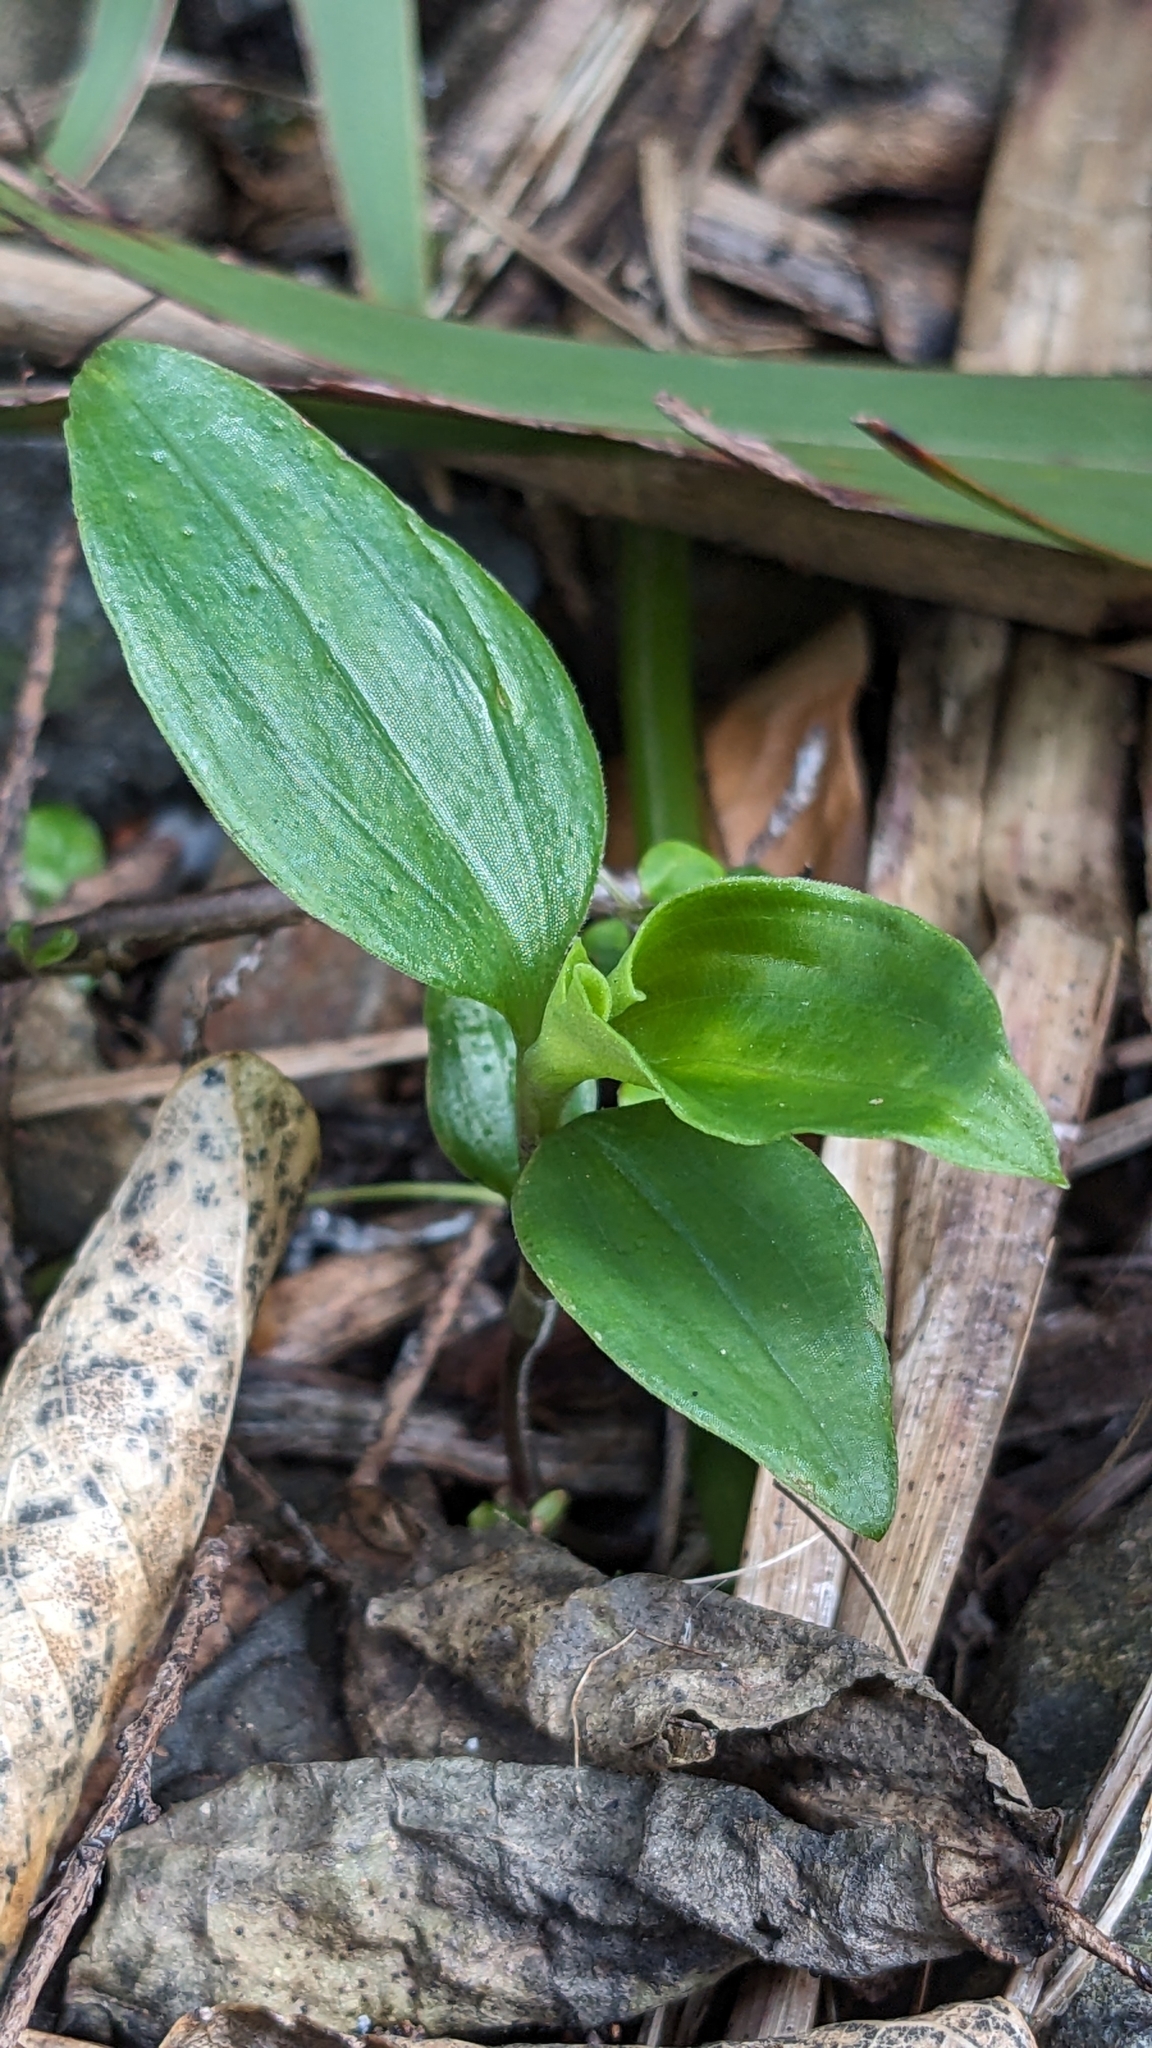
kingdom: Plantae
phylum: Tracheophyta
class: Liliopsida
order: Commelinales
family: Commelinaceae
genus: Tradescantia
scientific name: Tradescantia fluminensis
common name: Wandering-jew
